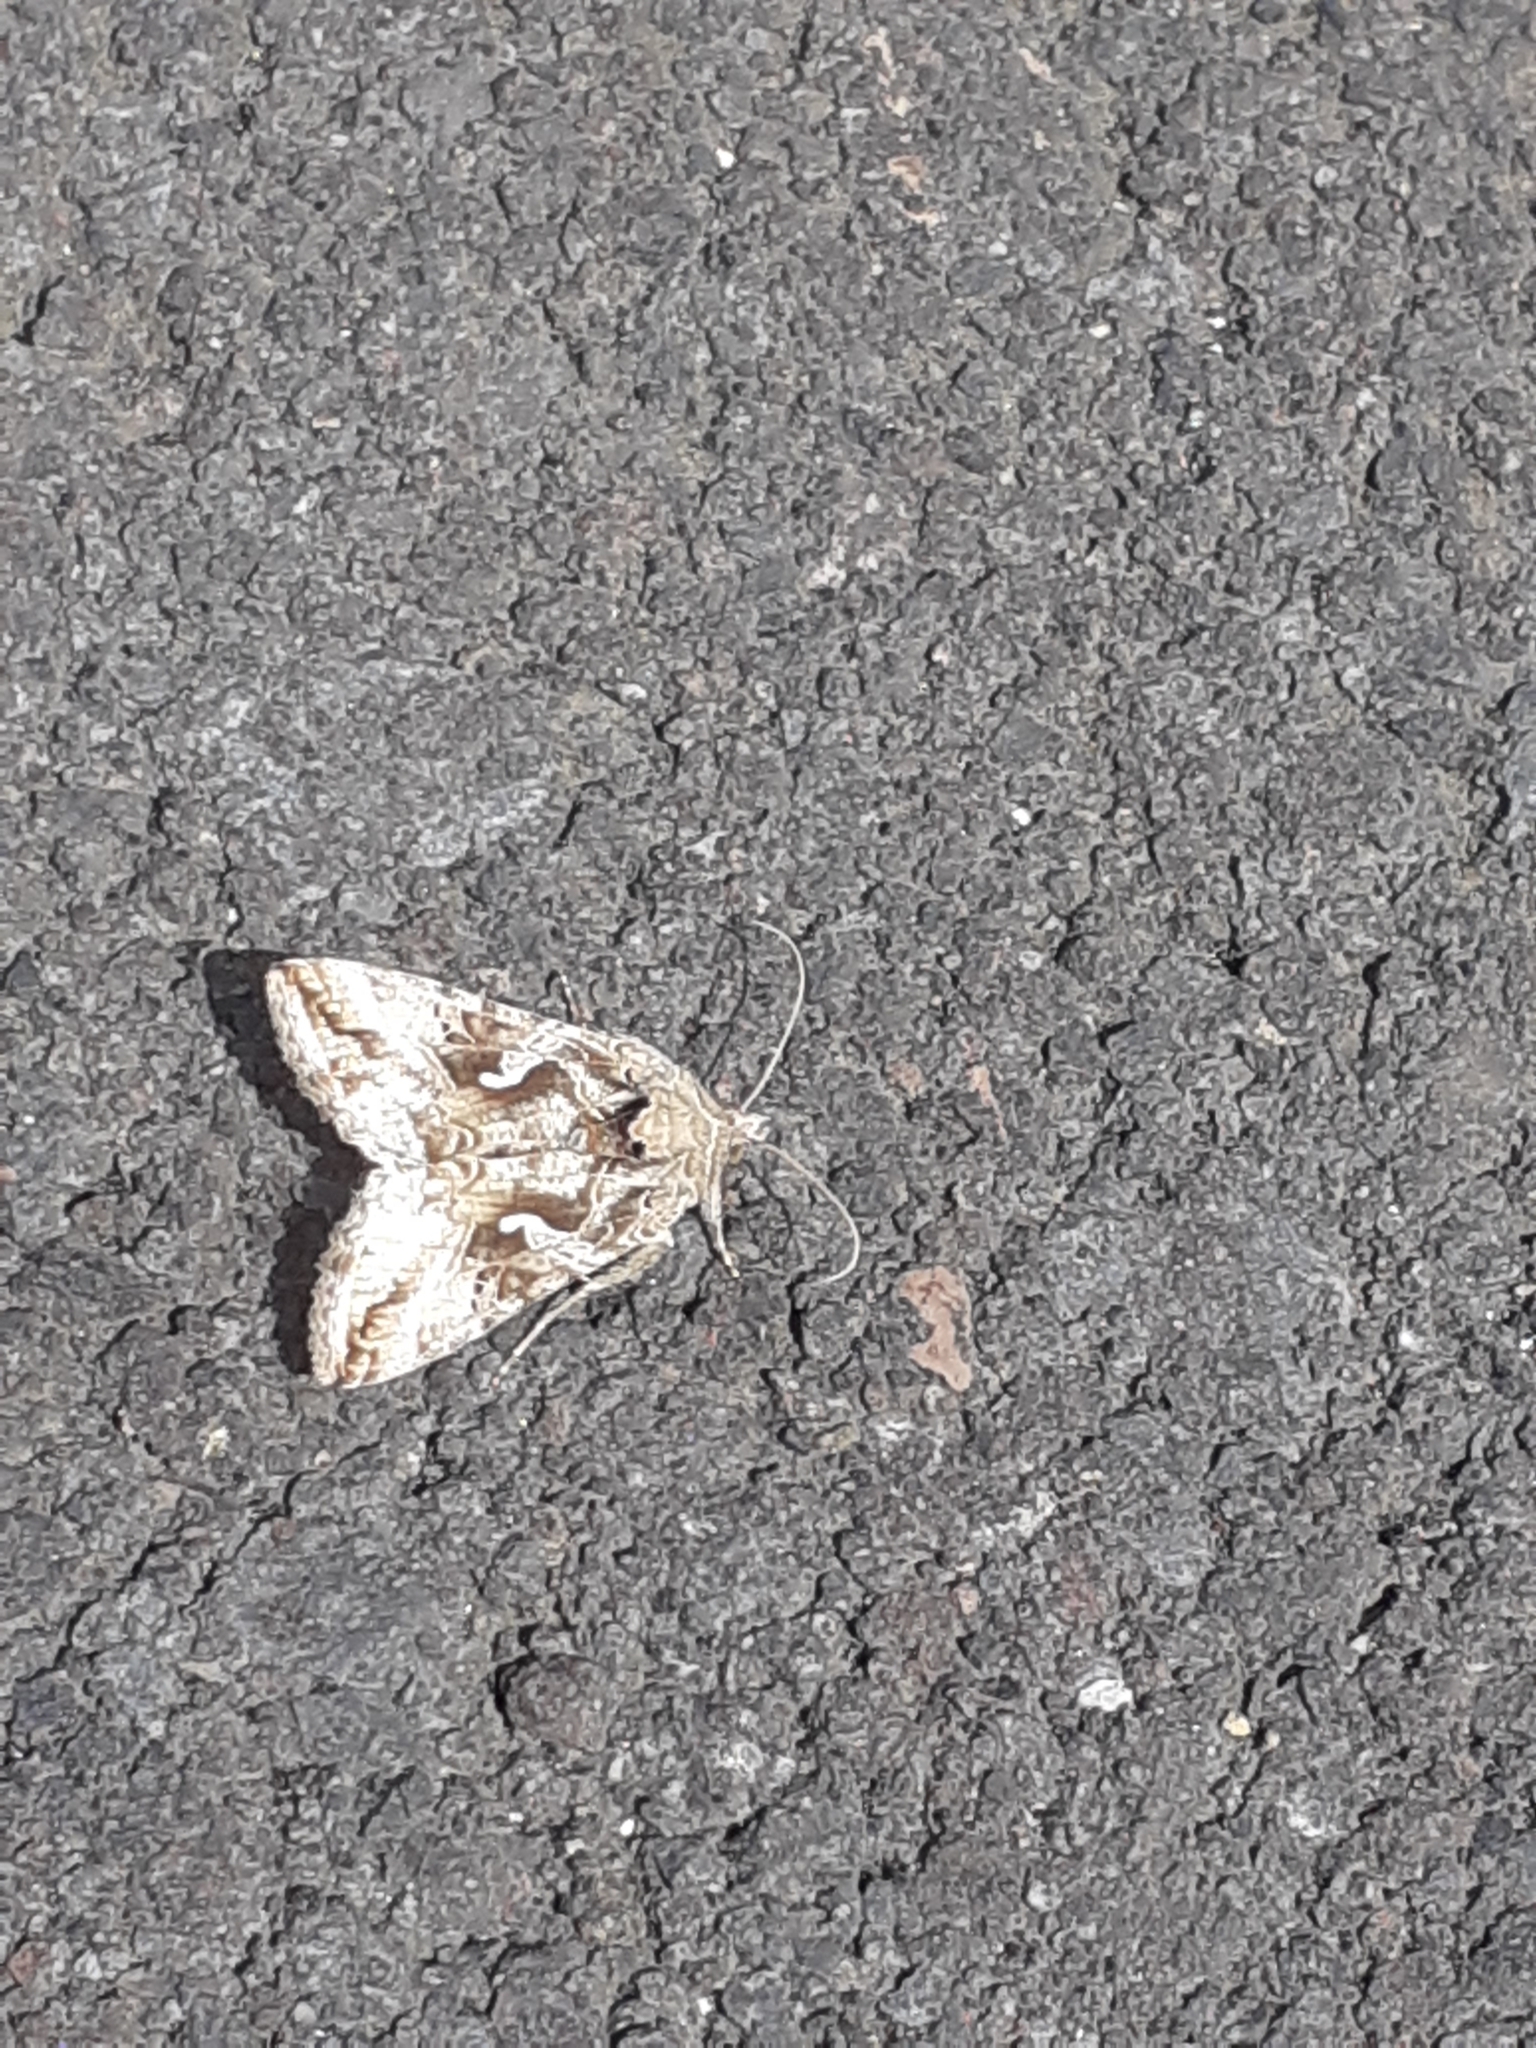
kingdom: Animalia
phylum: Arthropoda
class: Insecta
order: Lepidoptera
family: Noctuidae
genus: Autographa
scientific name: Autographa gamma
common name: Silver y
